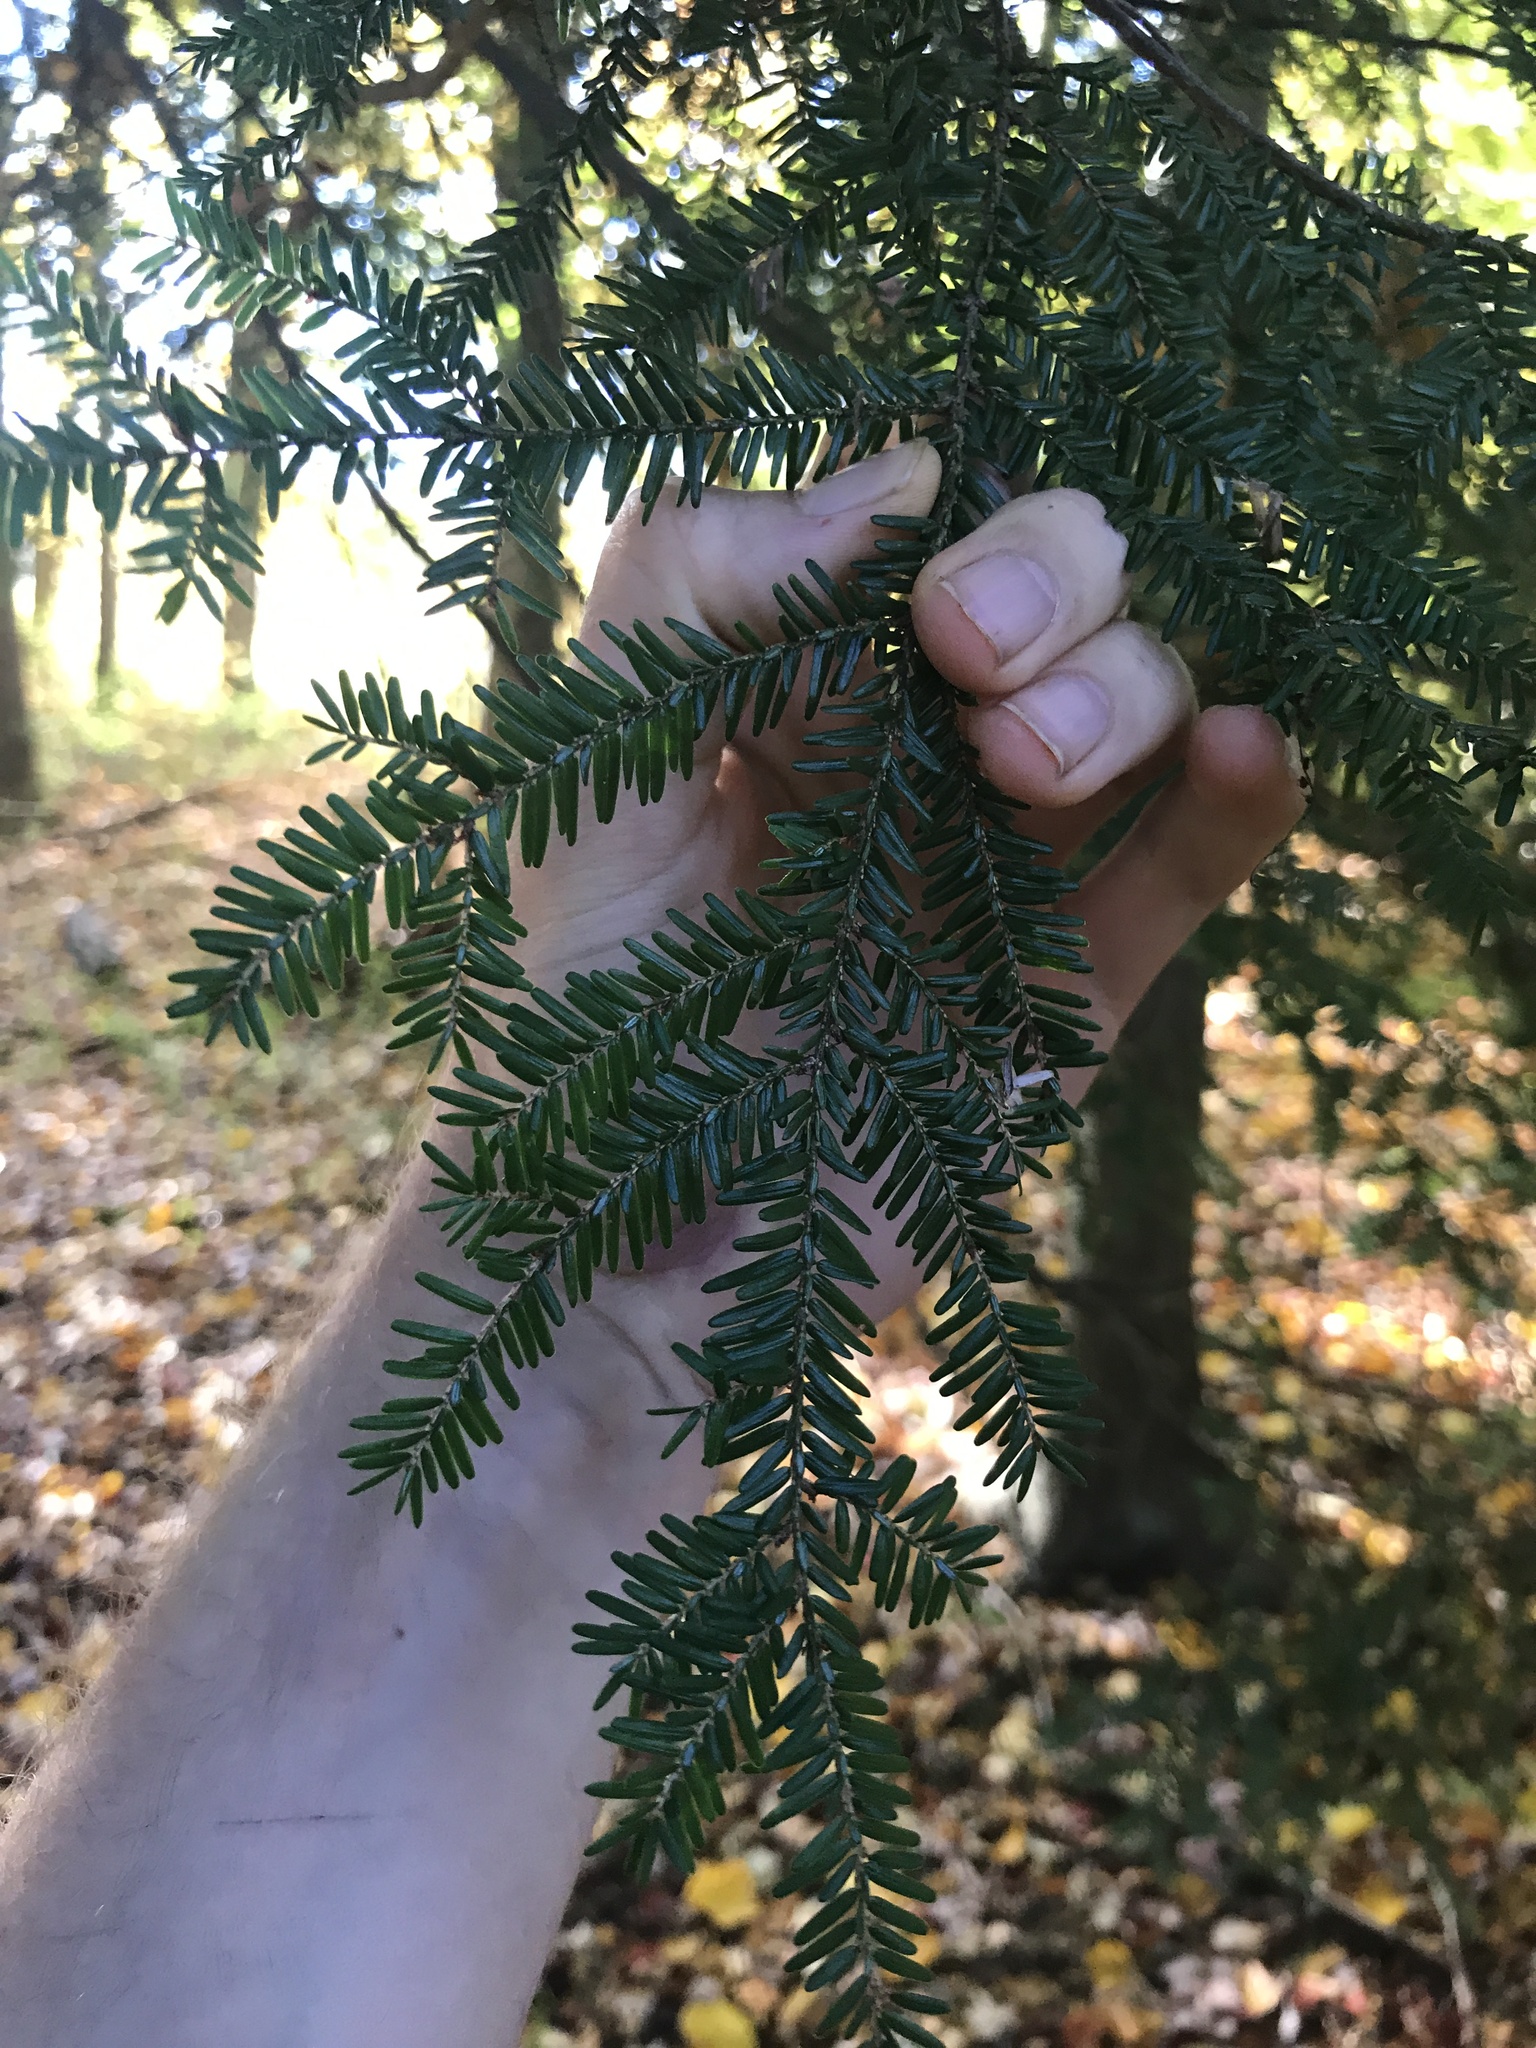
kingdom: Plantae
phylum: Tracheophyta
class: Pinopsida
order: Pinales
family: Pinaceae
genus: Tsuga
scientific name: Tsuga canadensis
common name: Eastern hemlock
